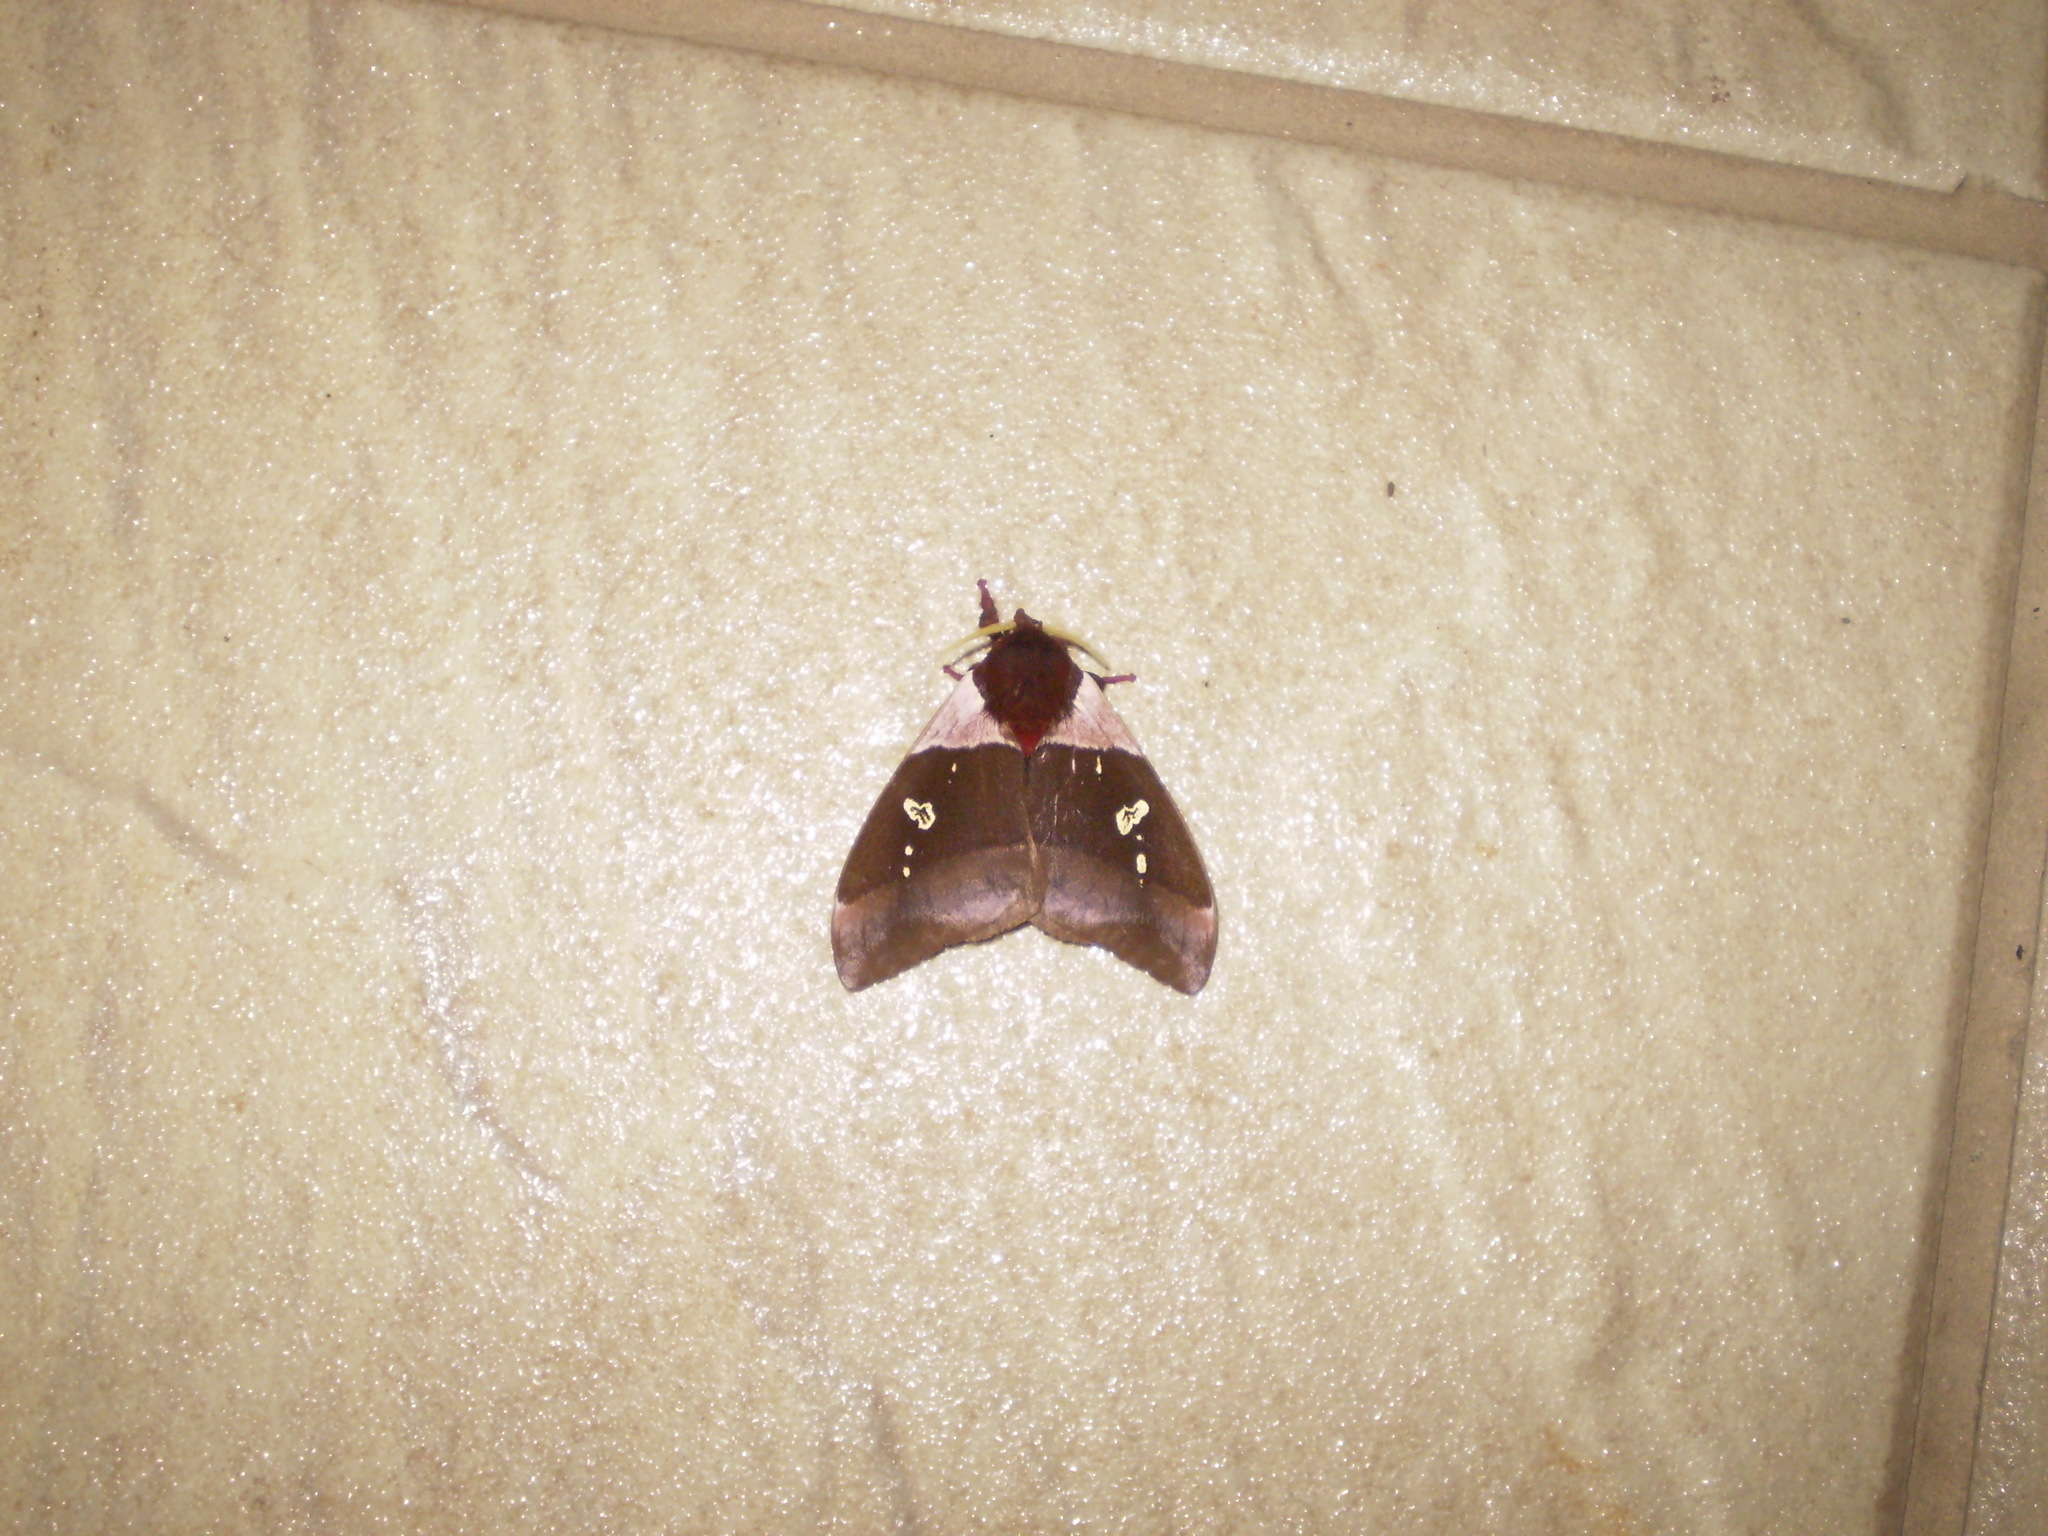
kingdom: Animalia
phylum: Arthropoda
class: Insecta
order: Lepidoptera
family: Saturniidae
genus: Dirphiopsis
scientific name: Dirphiopsis trisignata
